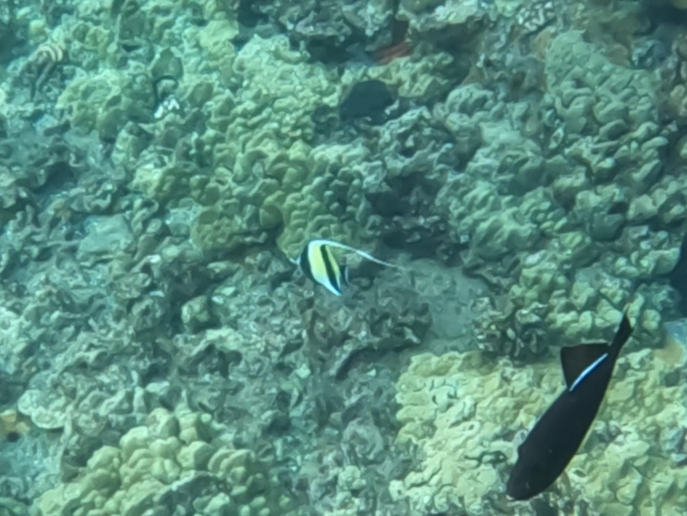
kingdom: Animalia
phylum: Chordata
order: Perciformes
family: Zanclidae
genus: Zanclus
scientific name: Zanclus cornutus
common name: Moorish idol
